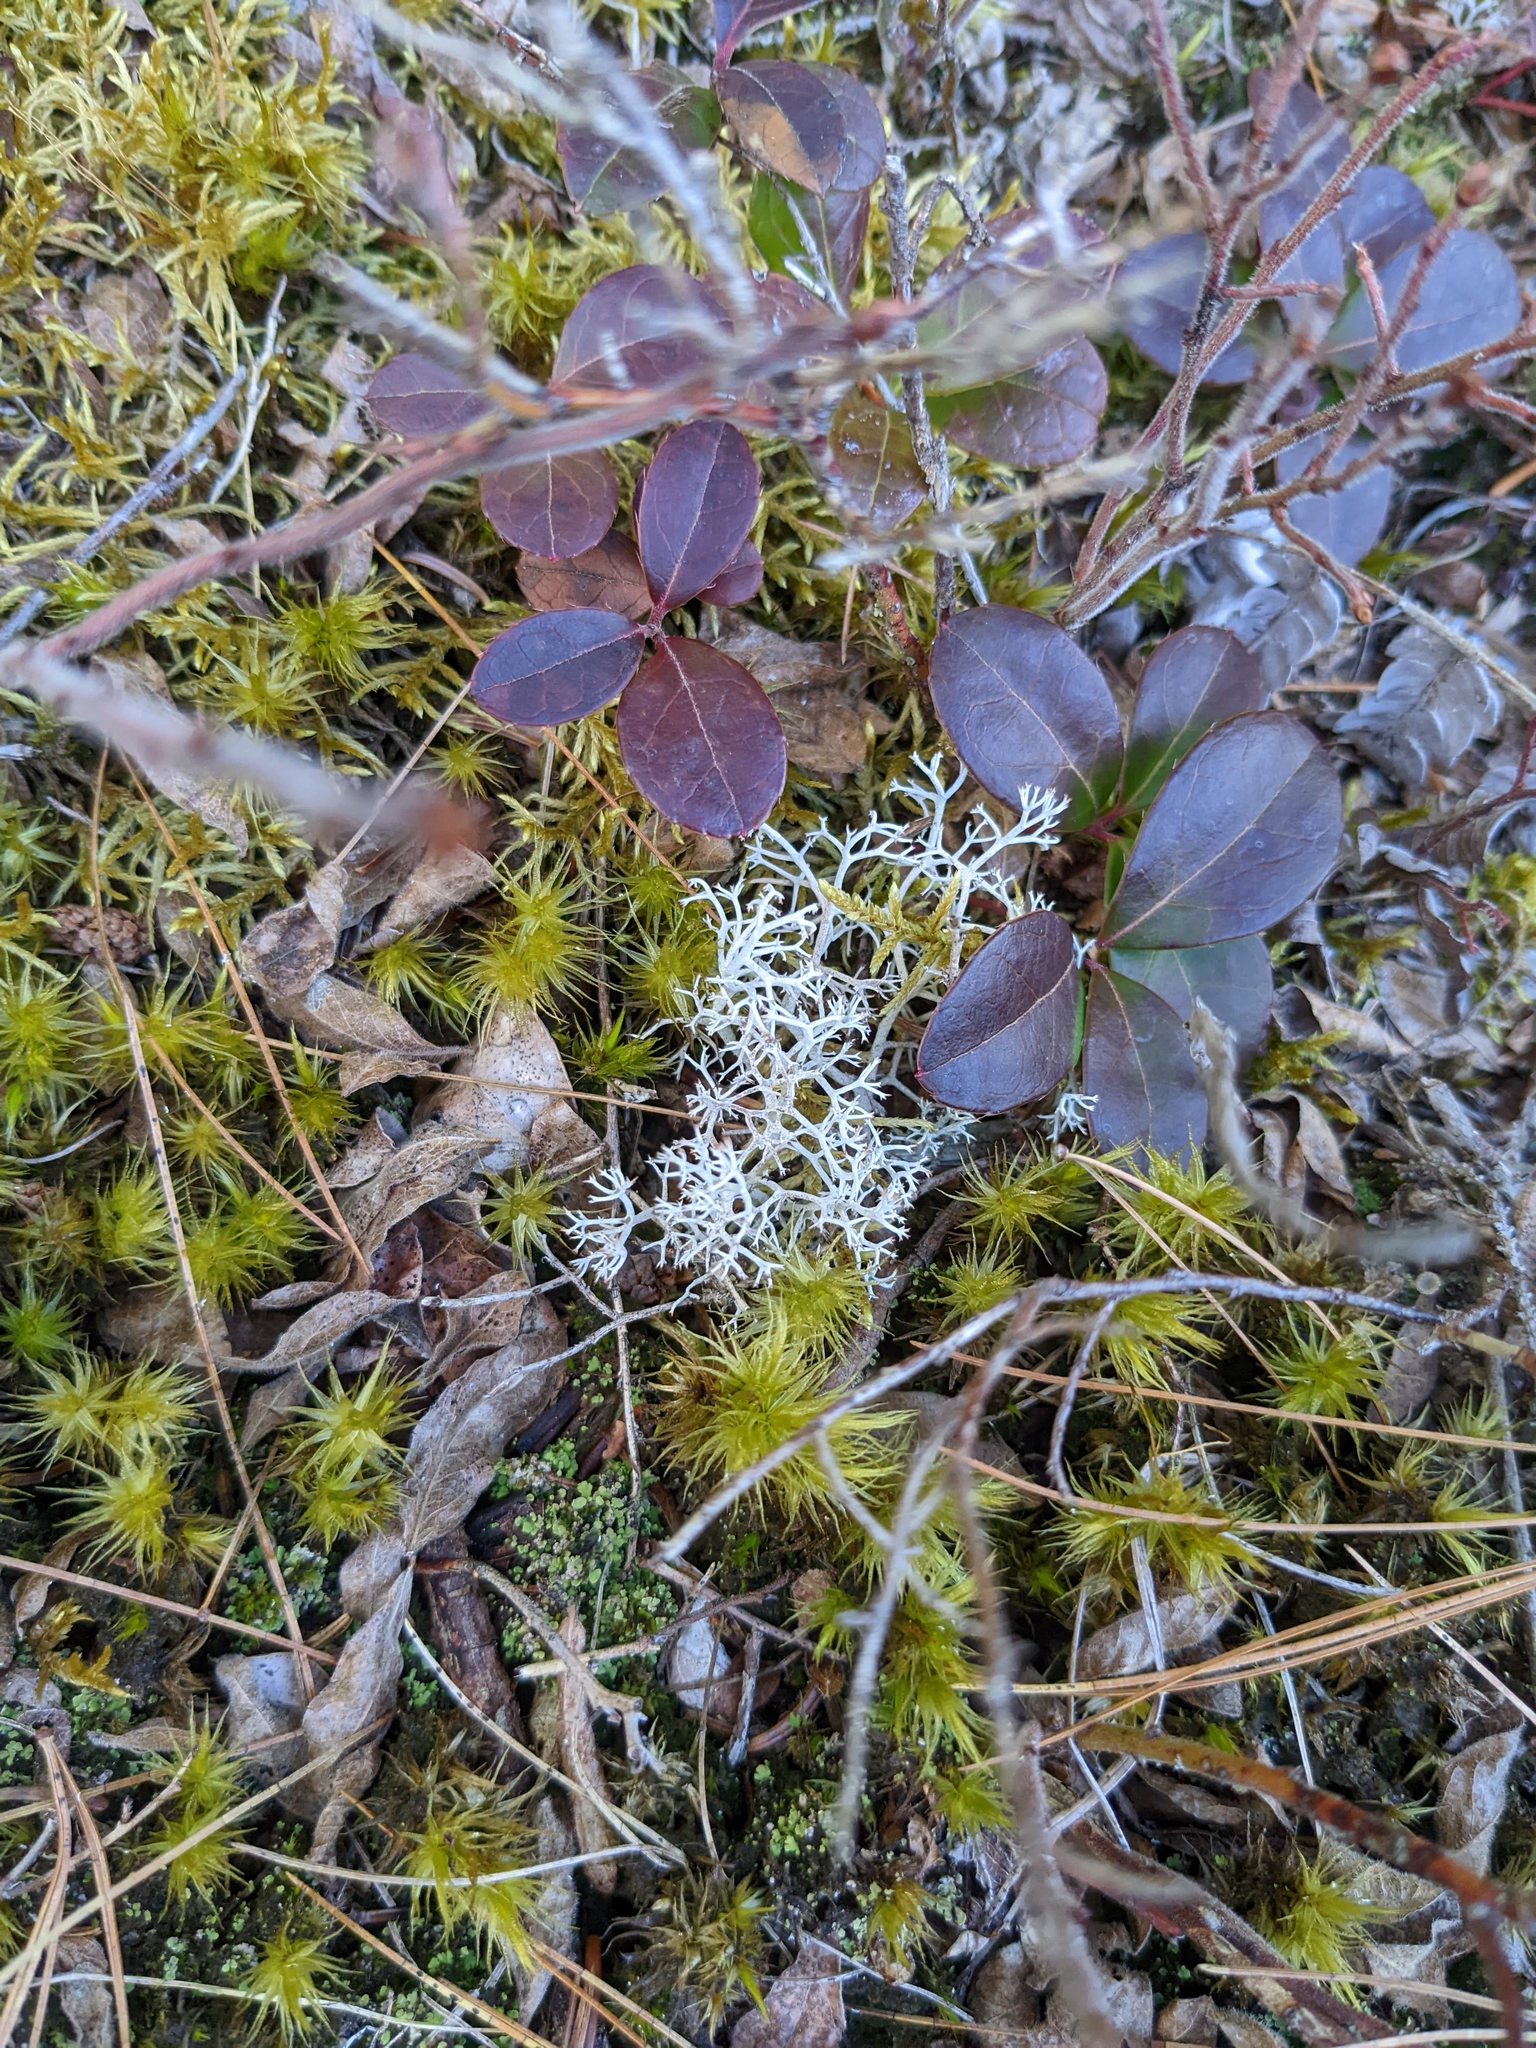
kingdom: Plantae
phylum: Tracheophyta
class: Magnoliopsida
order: Ericales
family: Ericaceae
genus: Gaultheria
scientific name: Gaultheria procumbens
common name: Checkerberry
